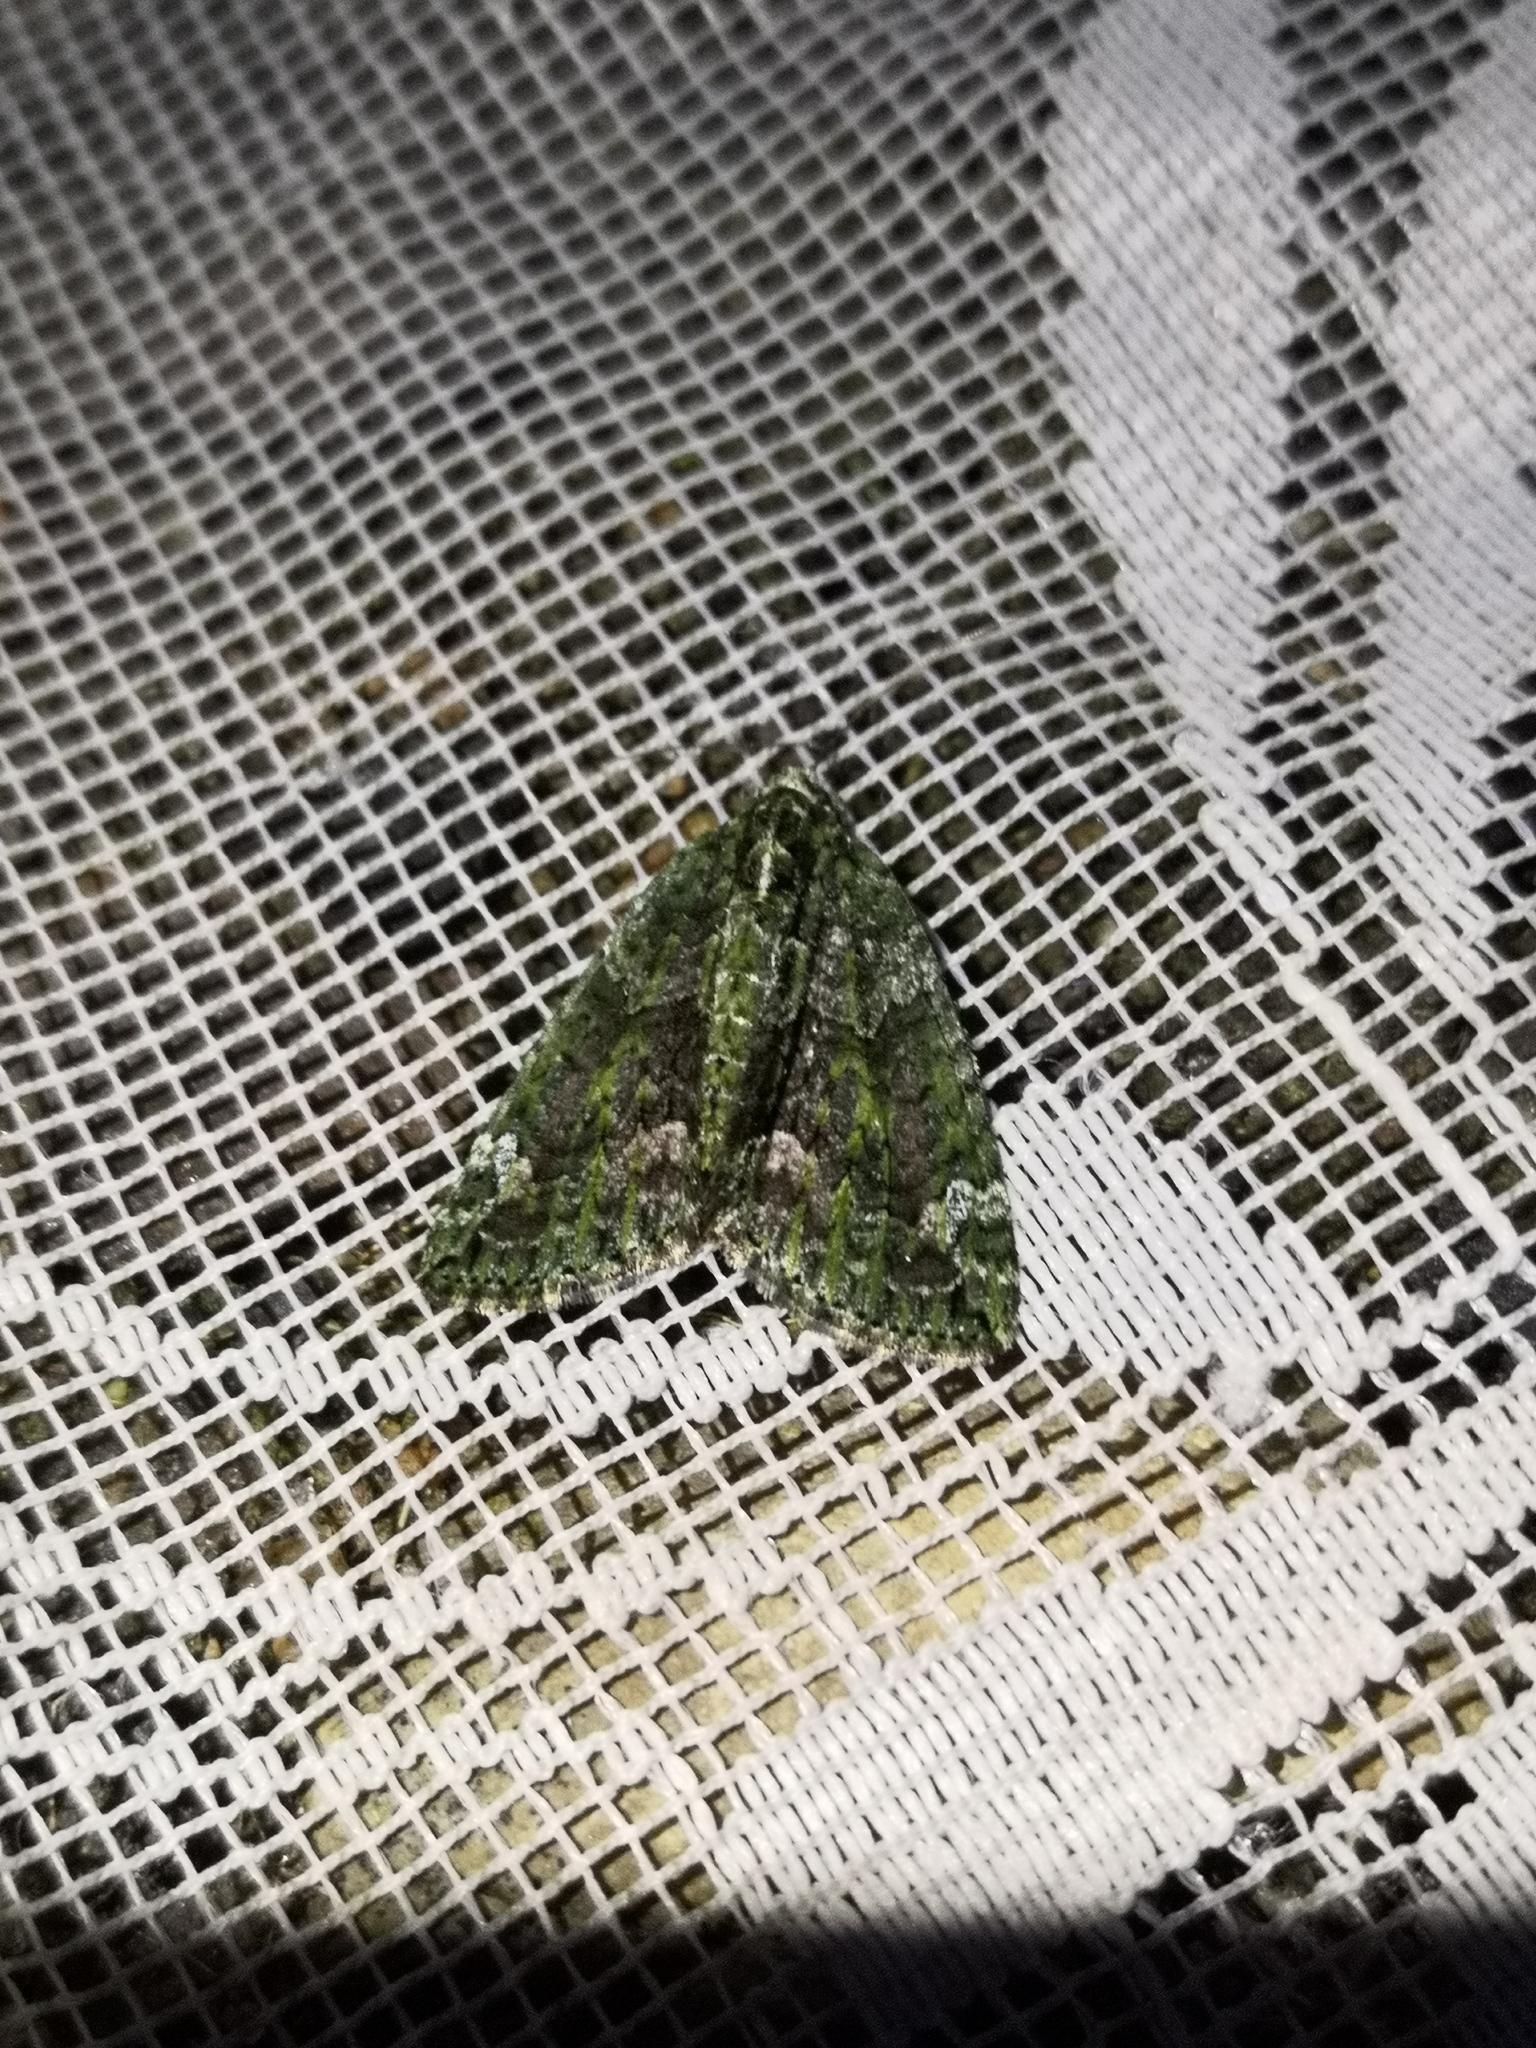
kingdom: Animalia
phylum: Arthropoda
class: Insecta
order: Lepidoptera
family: Geometridae
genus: Chloroclysta
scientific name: Chloroclysta siterata
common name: Red-green carpet
